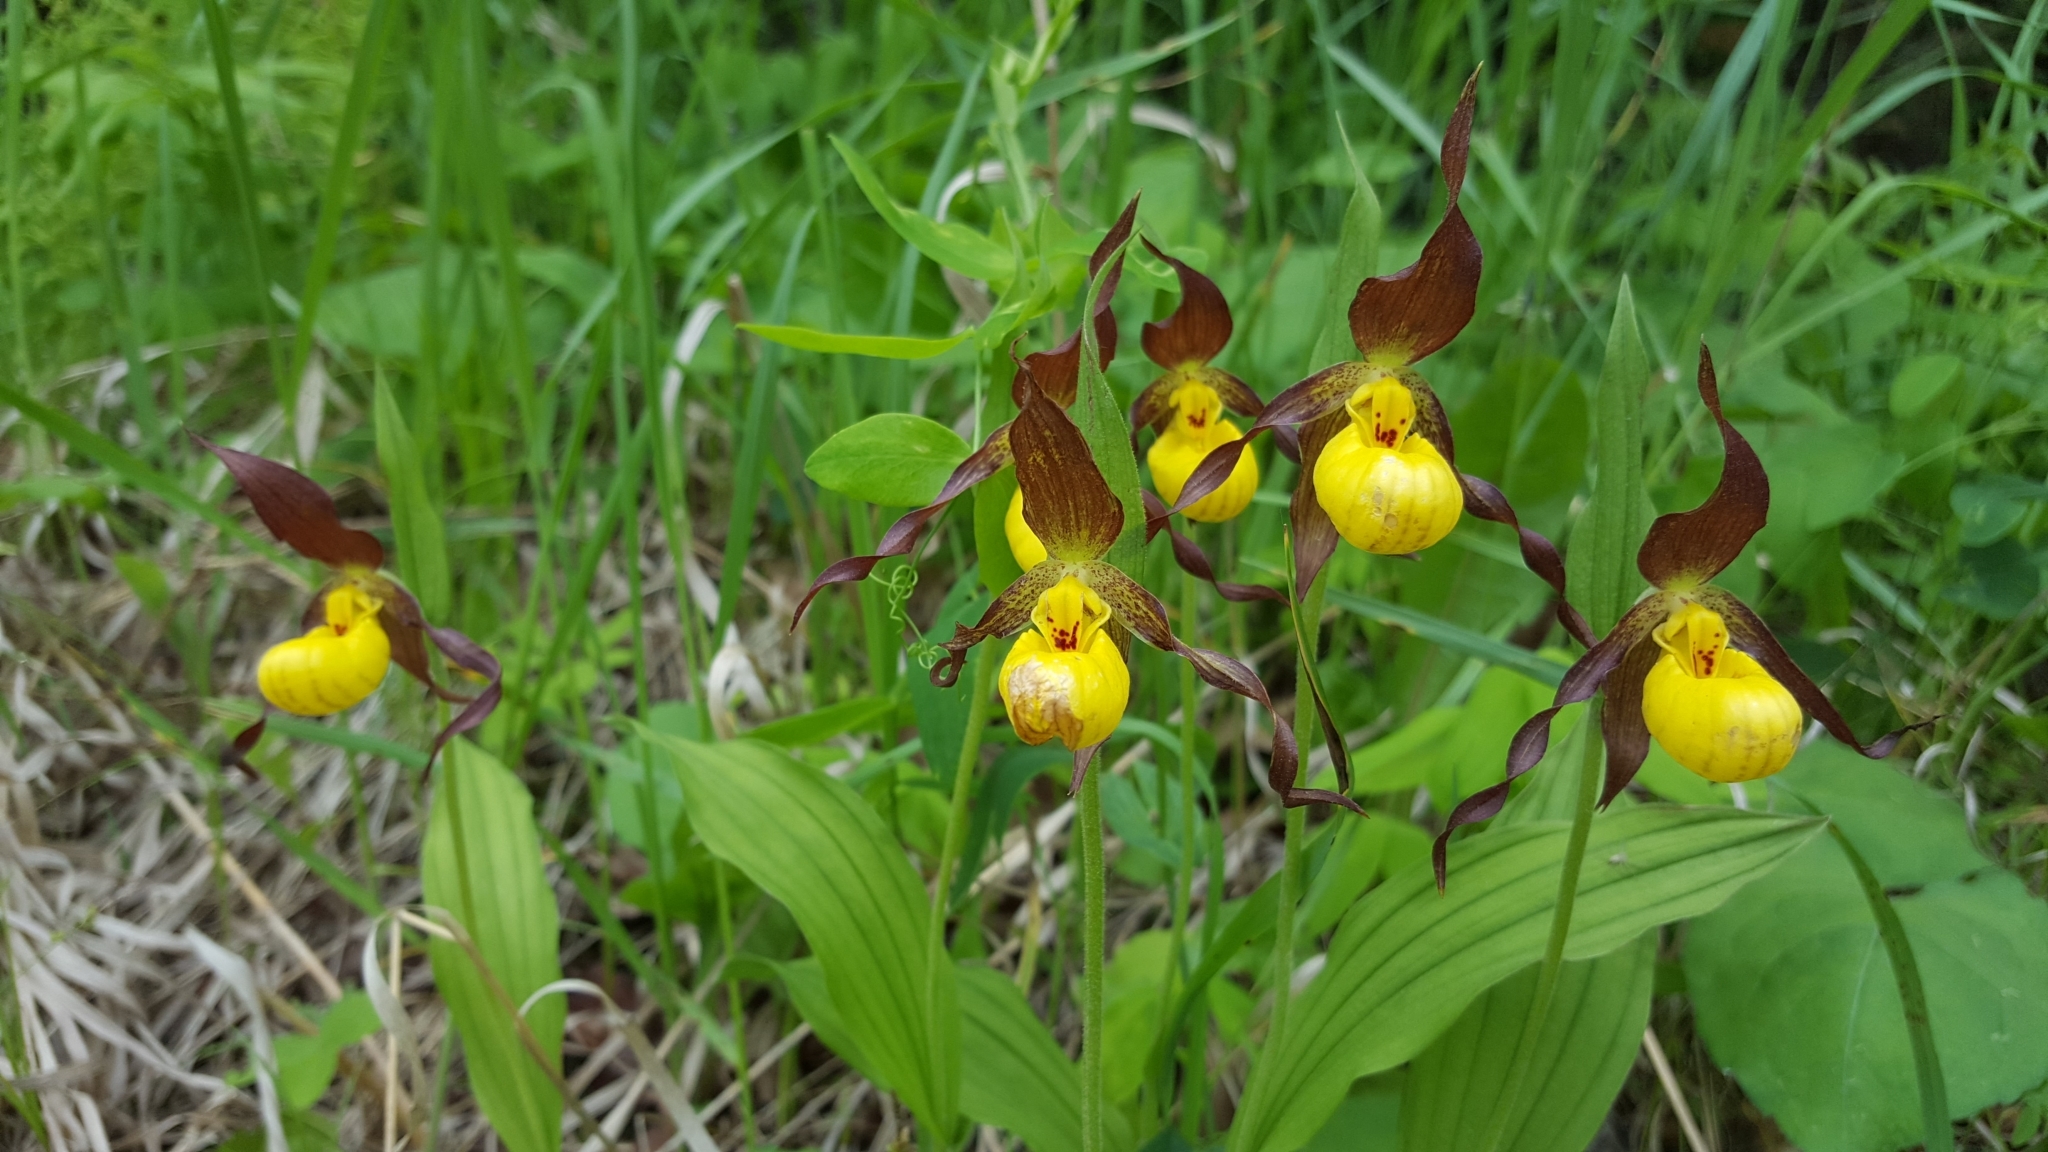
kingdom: Plantae
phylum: Tracheophyta
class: Liliopsida
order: Asparagales
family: Orchidaceae
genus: Cypripedium
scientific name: Cypripedium parviflorum
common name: American yellow lady's-slipper
